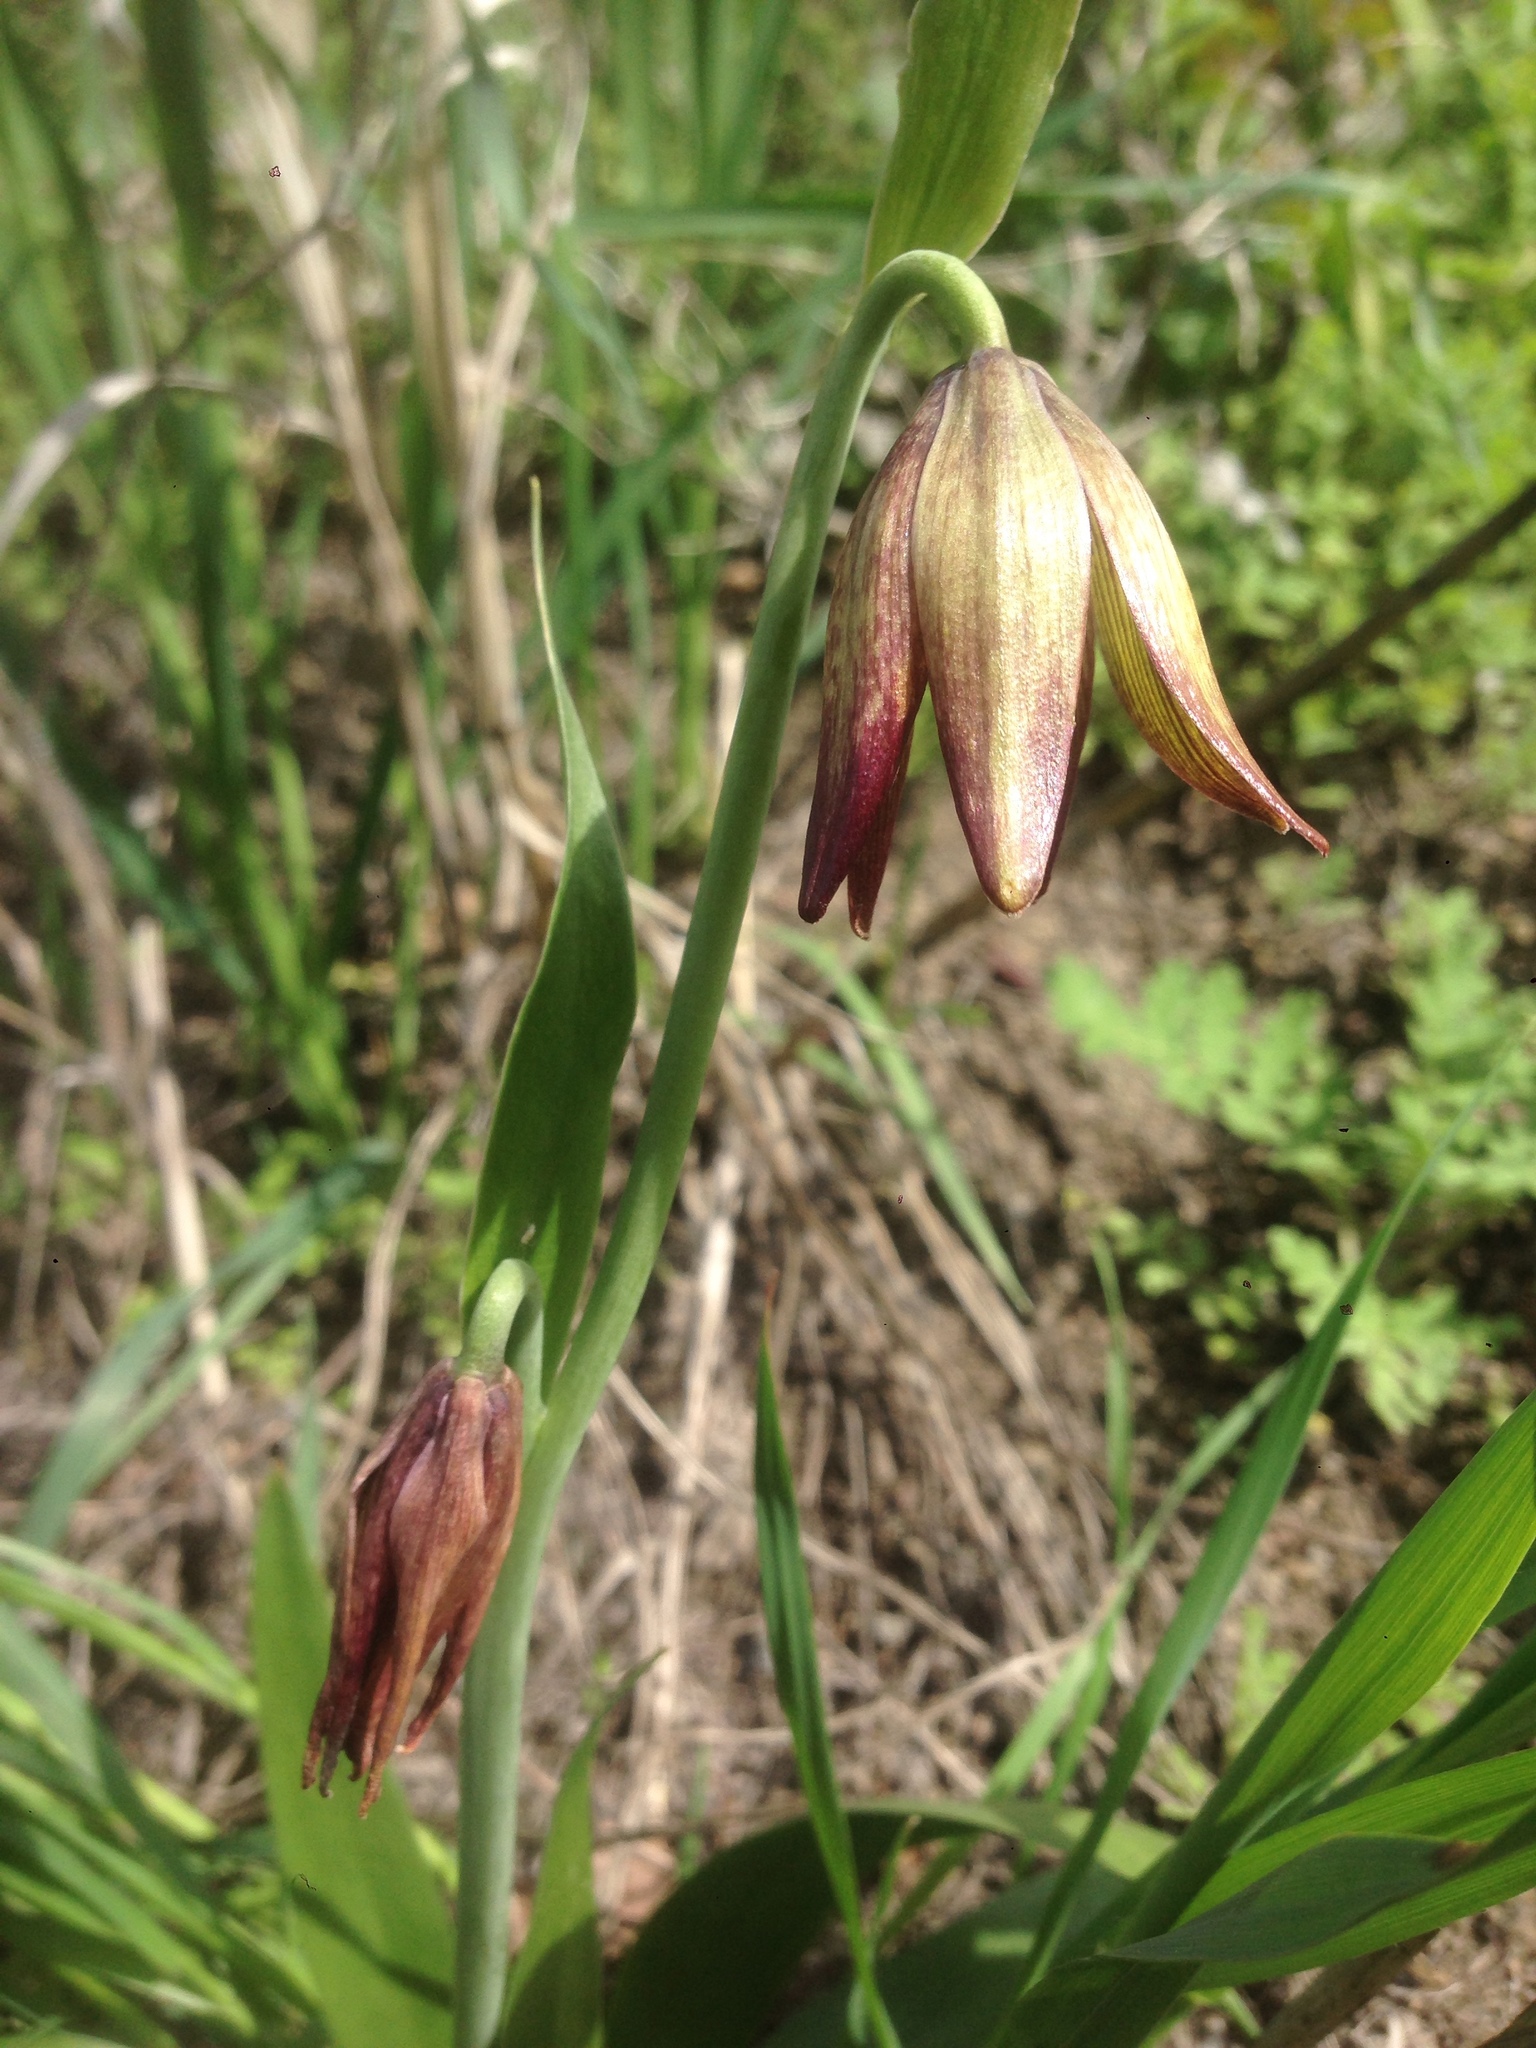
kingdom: Plantae
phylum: Tracheophyta
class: Liliopsida
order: Liliales
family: Liliaceae
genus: Fritillaria
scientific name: Fritillaria biflora
